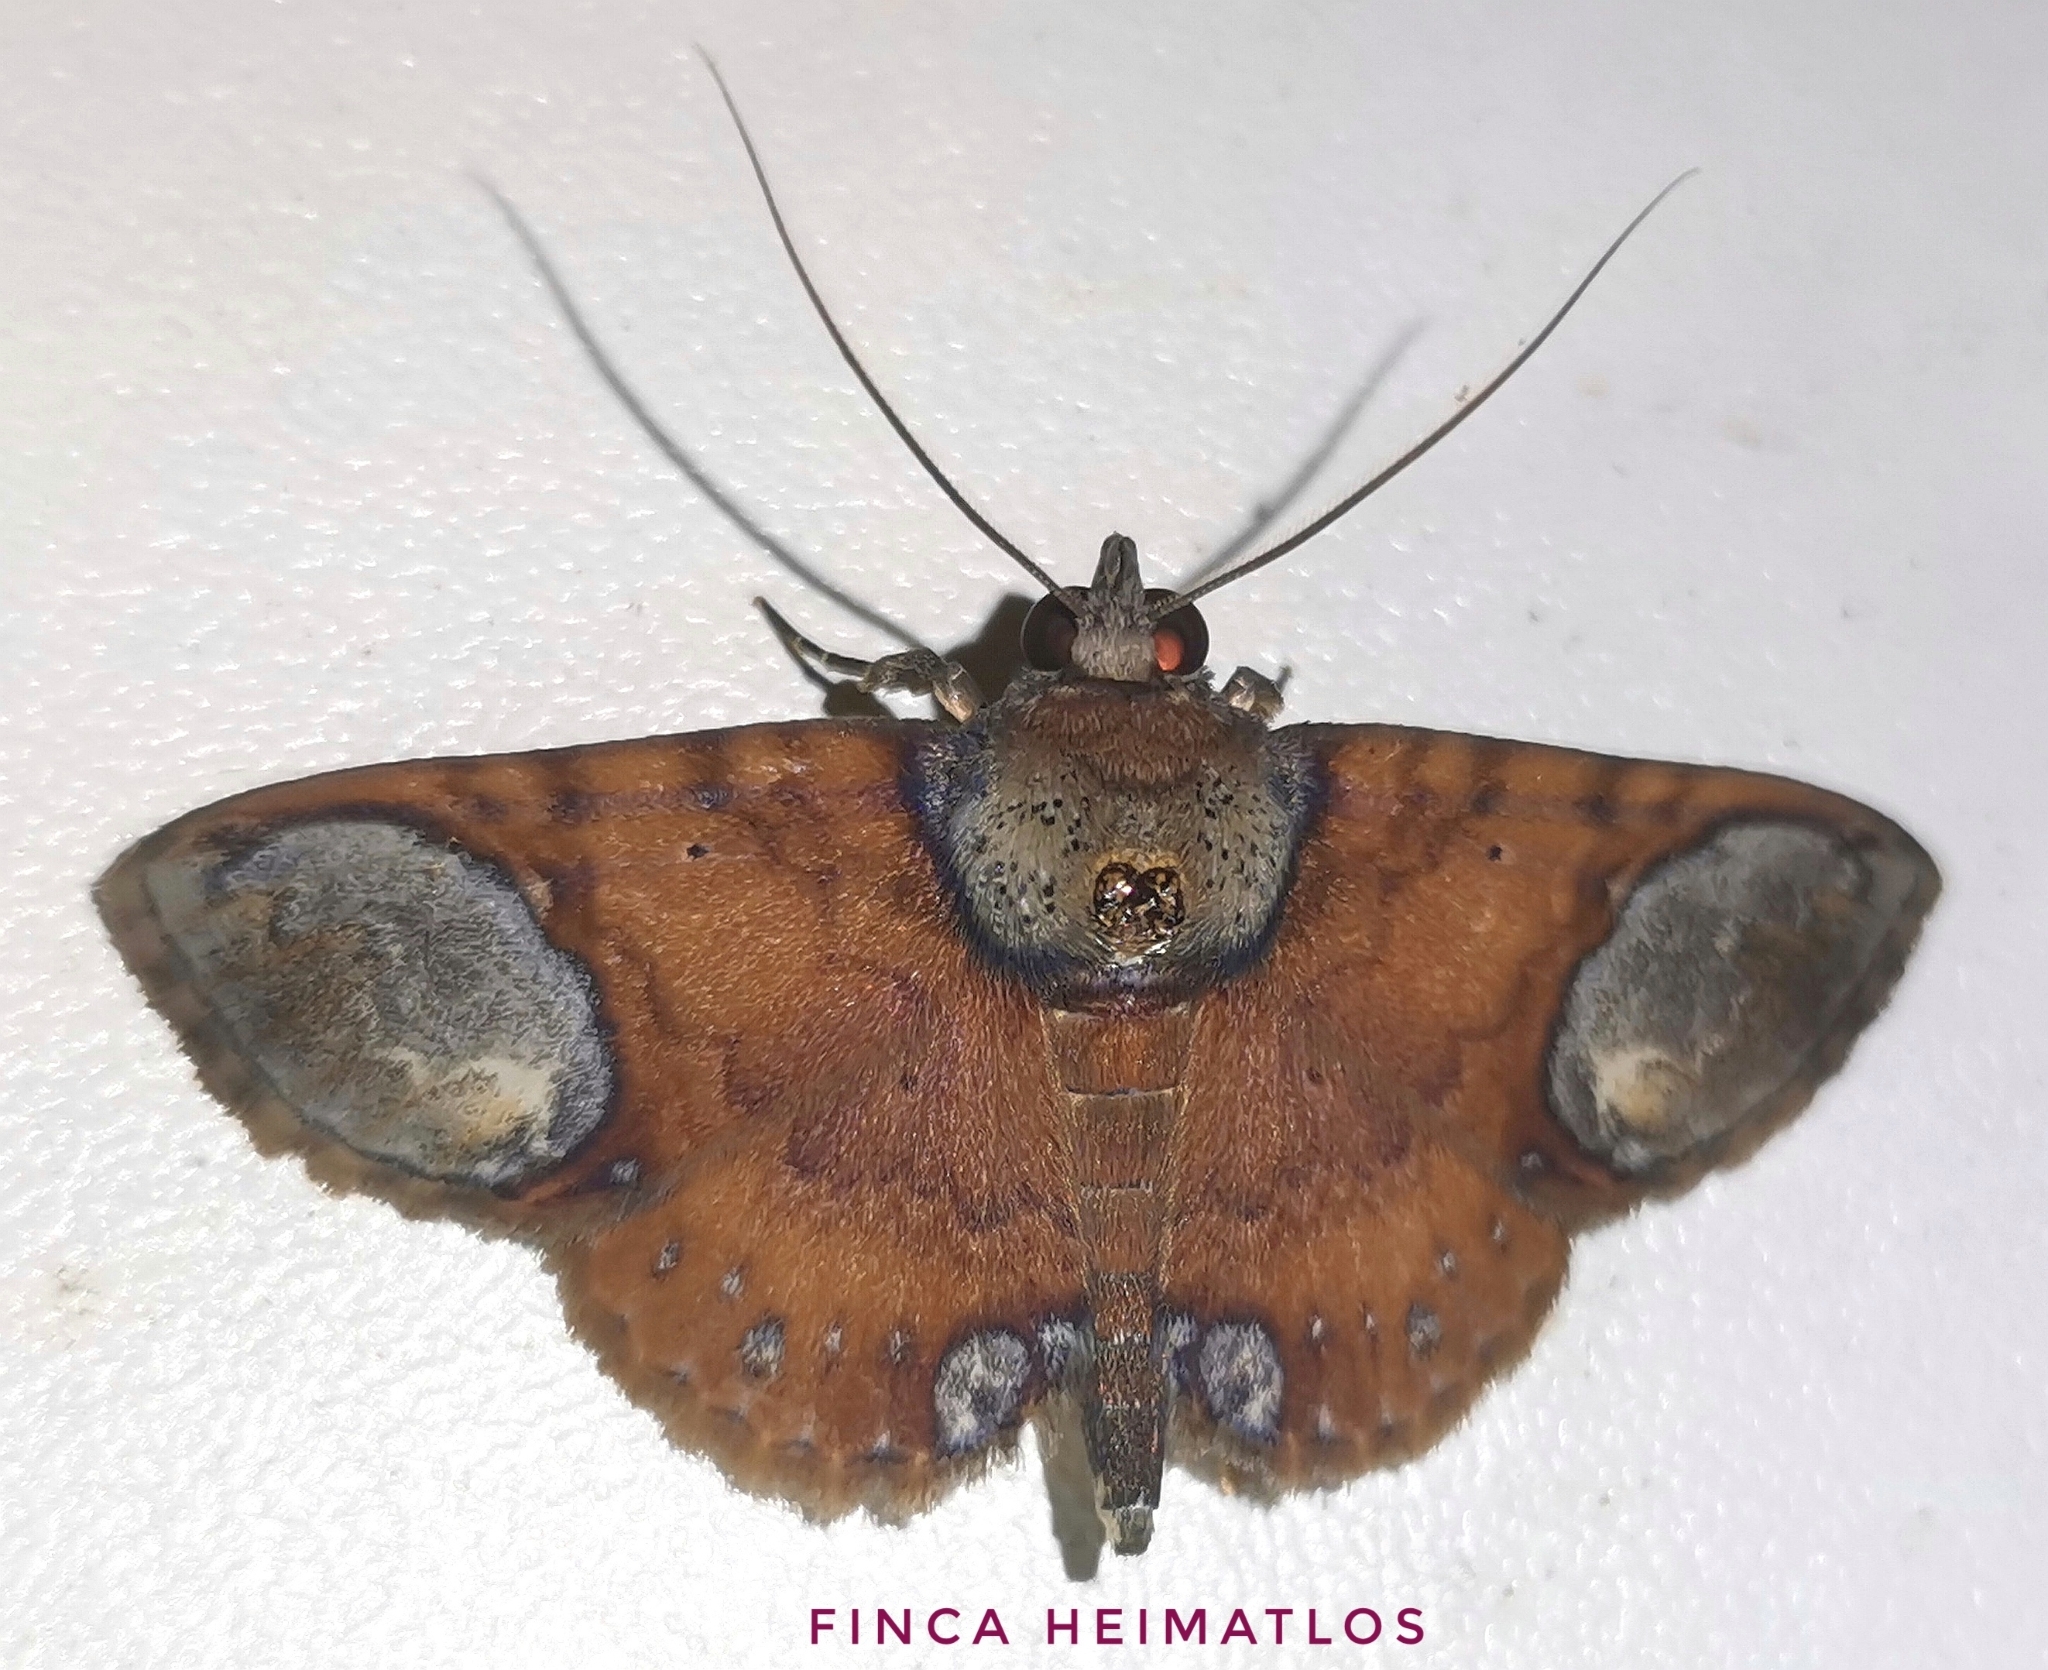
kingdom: Animalia
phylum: Arthropoda
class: Insecta
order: Lepidoptera
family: Erebidae
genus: Antiblemma
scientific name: Antiblemma trogocycla
